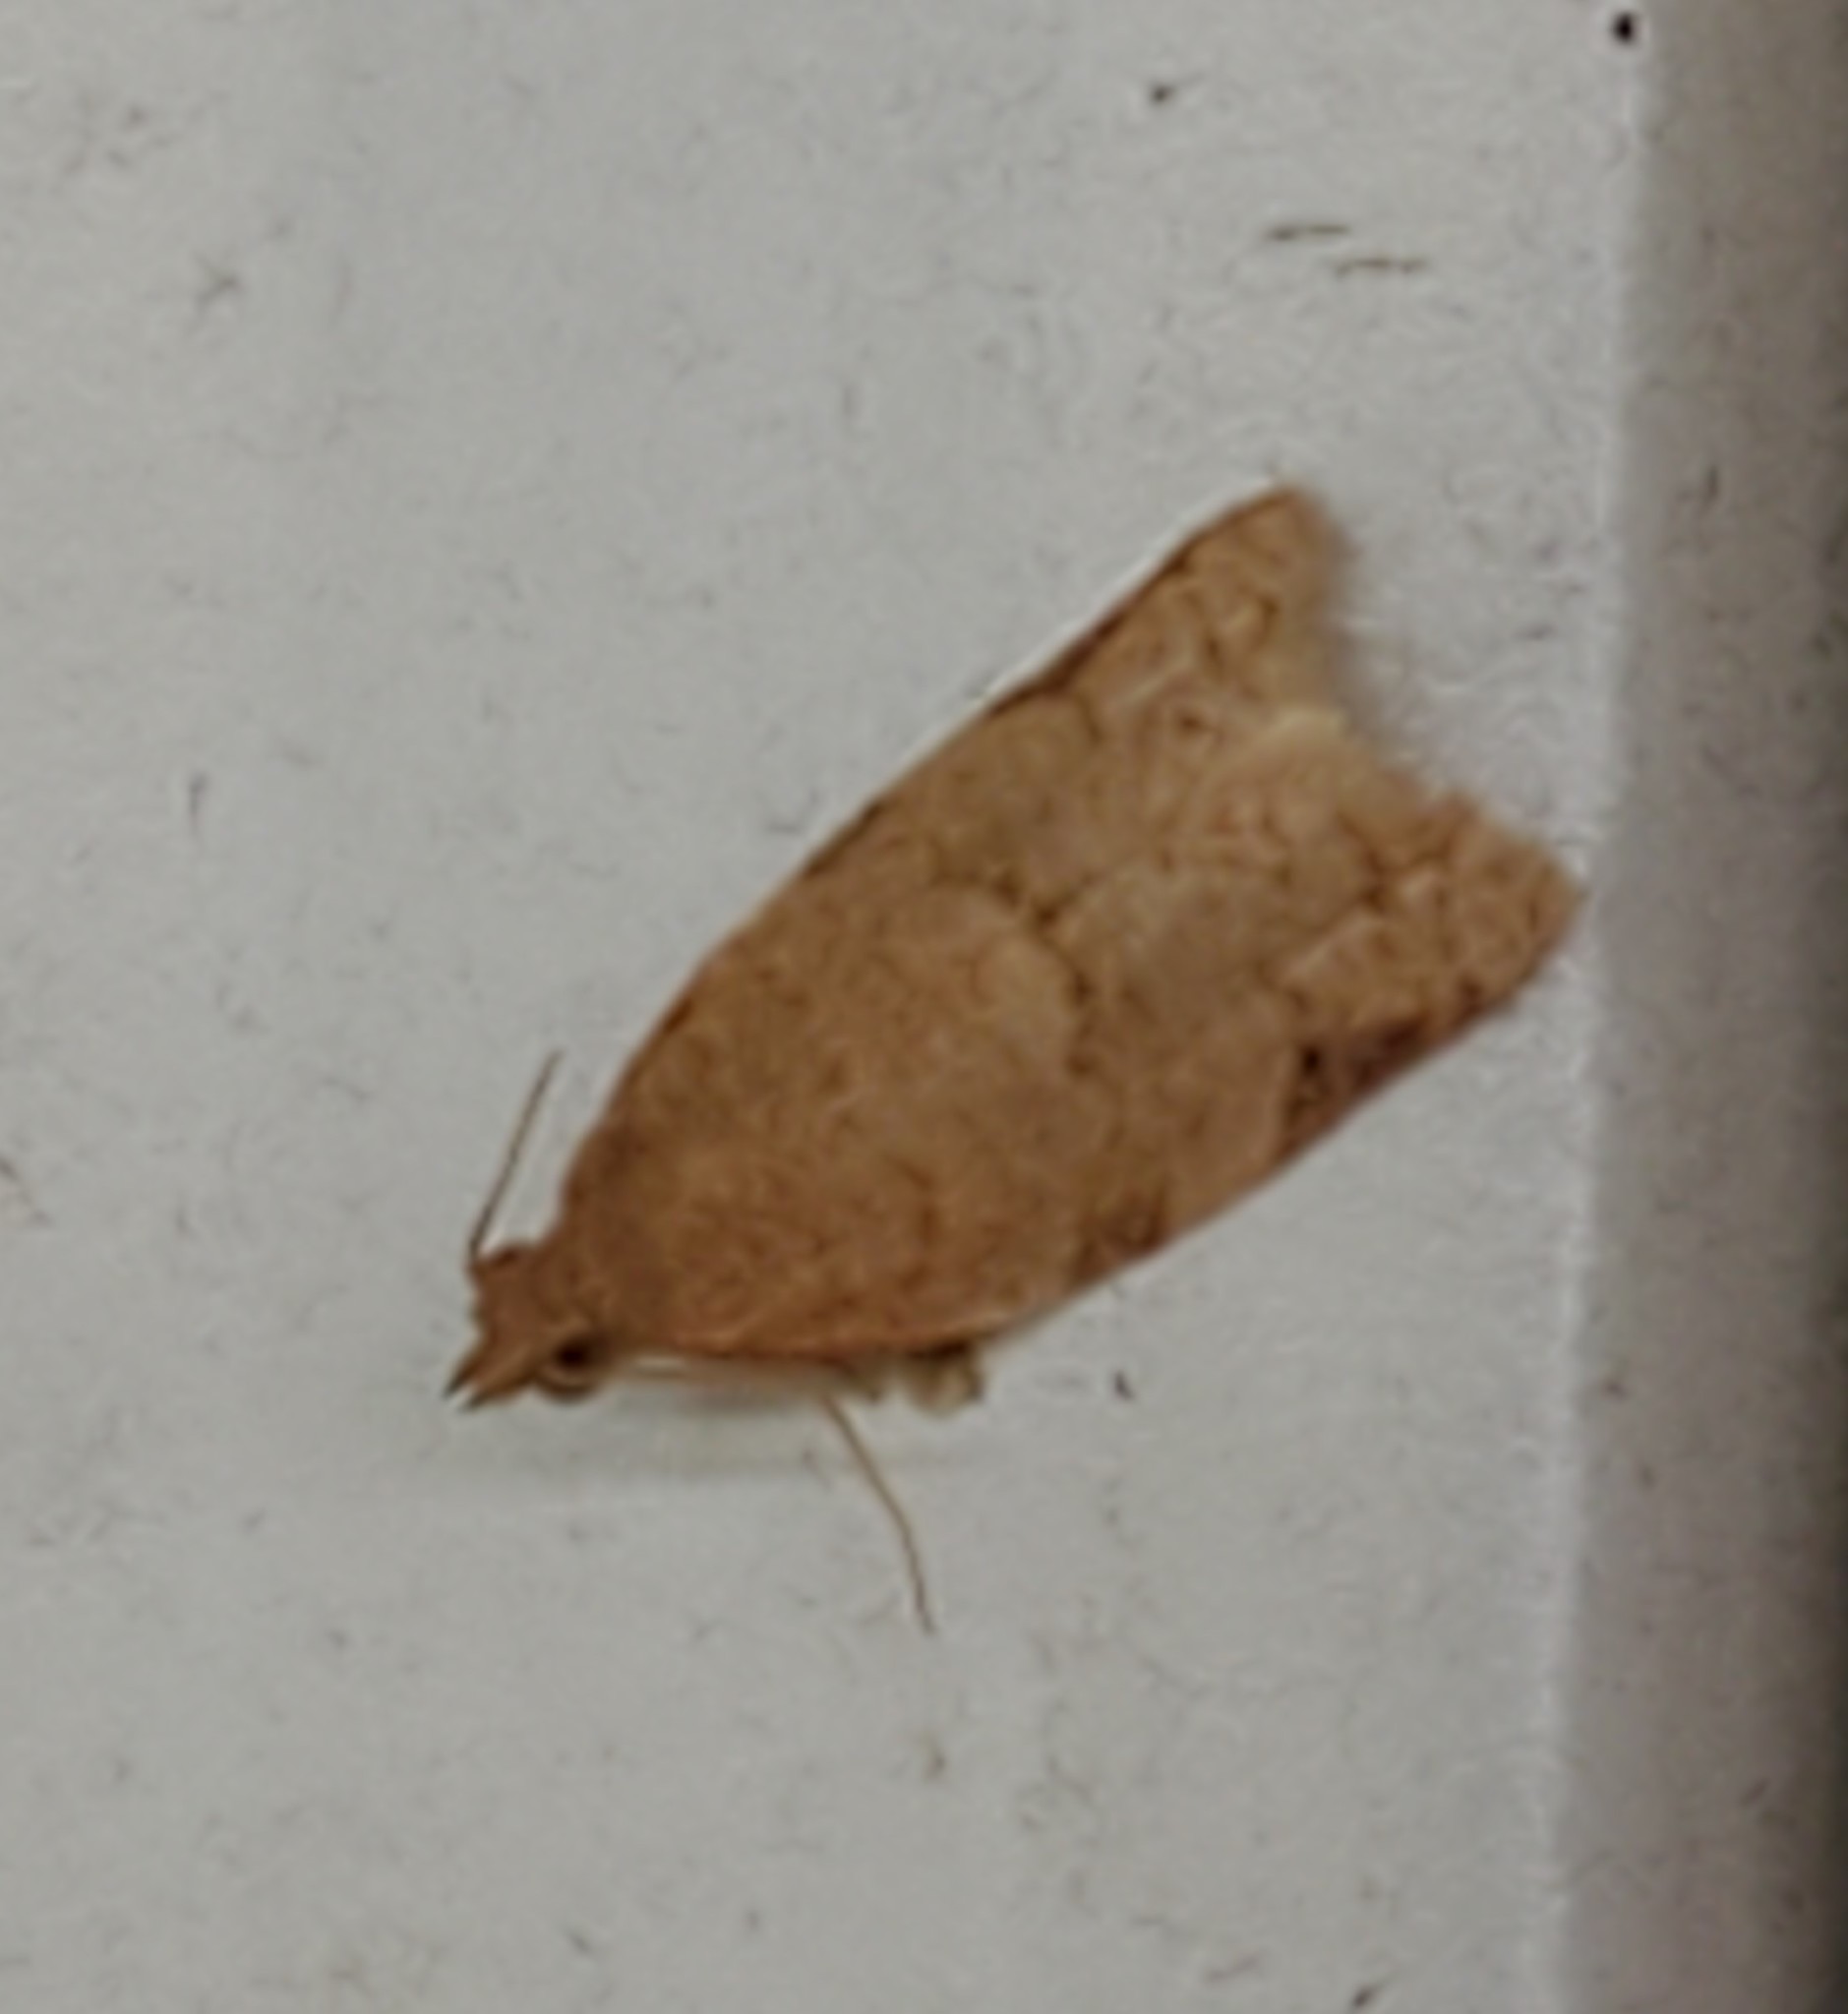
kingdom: Animalia
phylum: Arthropoda
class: Insecta
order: Lepidoptera
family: Tortricidae
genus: Clepsis
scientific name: Clepsis virescana
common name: Greenish apple moth
